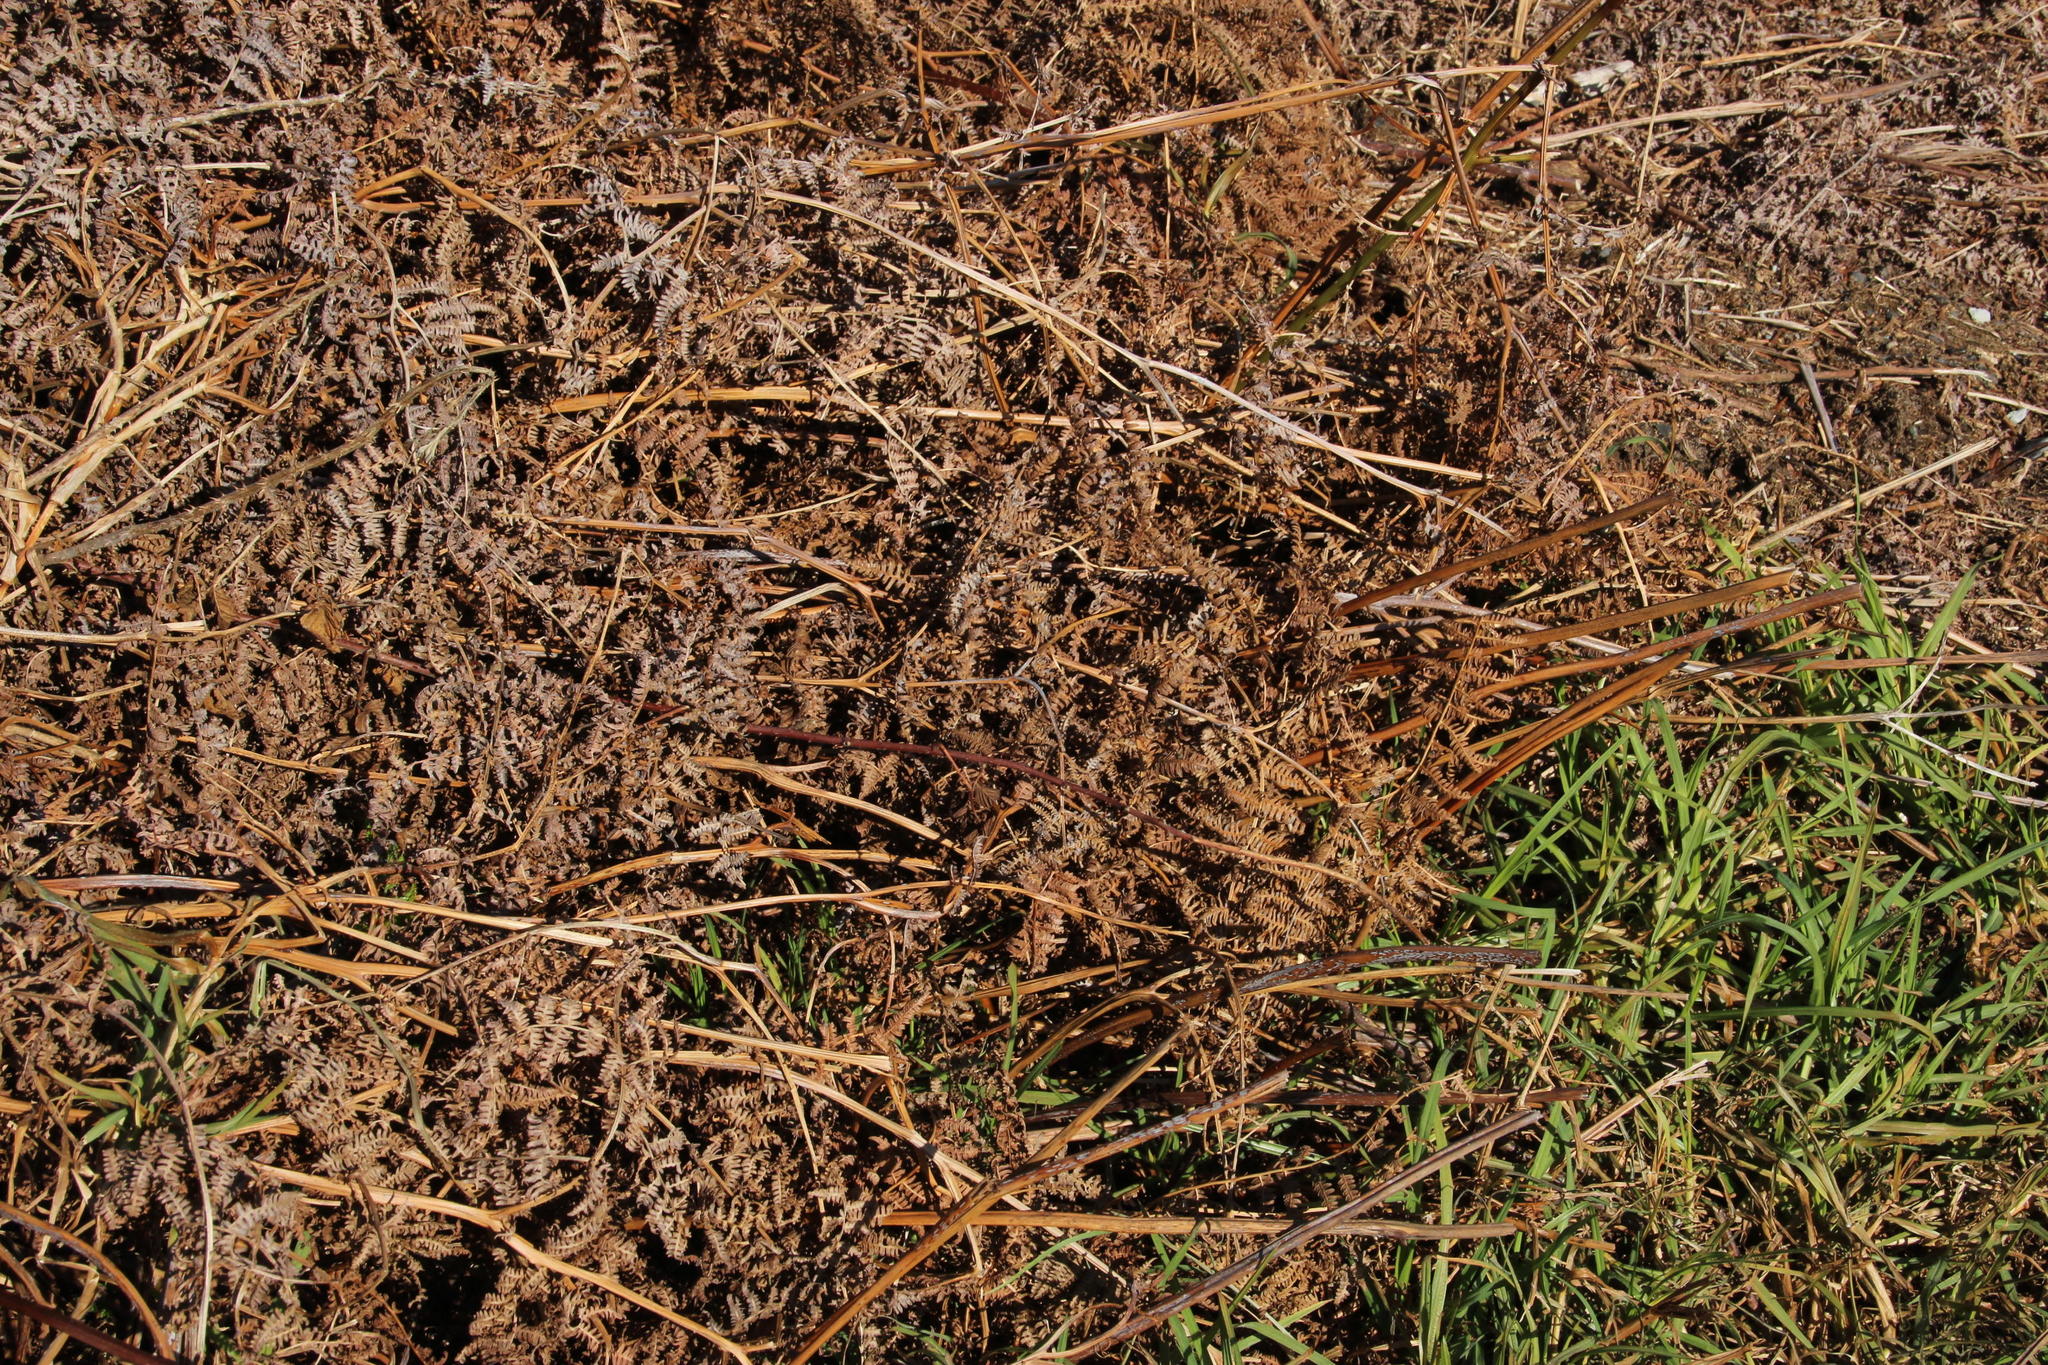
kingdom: Plantae
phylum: Tracheophyta
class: Polypodiopsida
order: Polypodiales
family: Dennstaedtiaceae
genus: Pteridium
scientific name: Pteridium aquilinum
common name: Bracken
